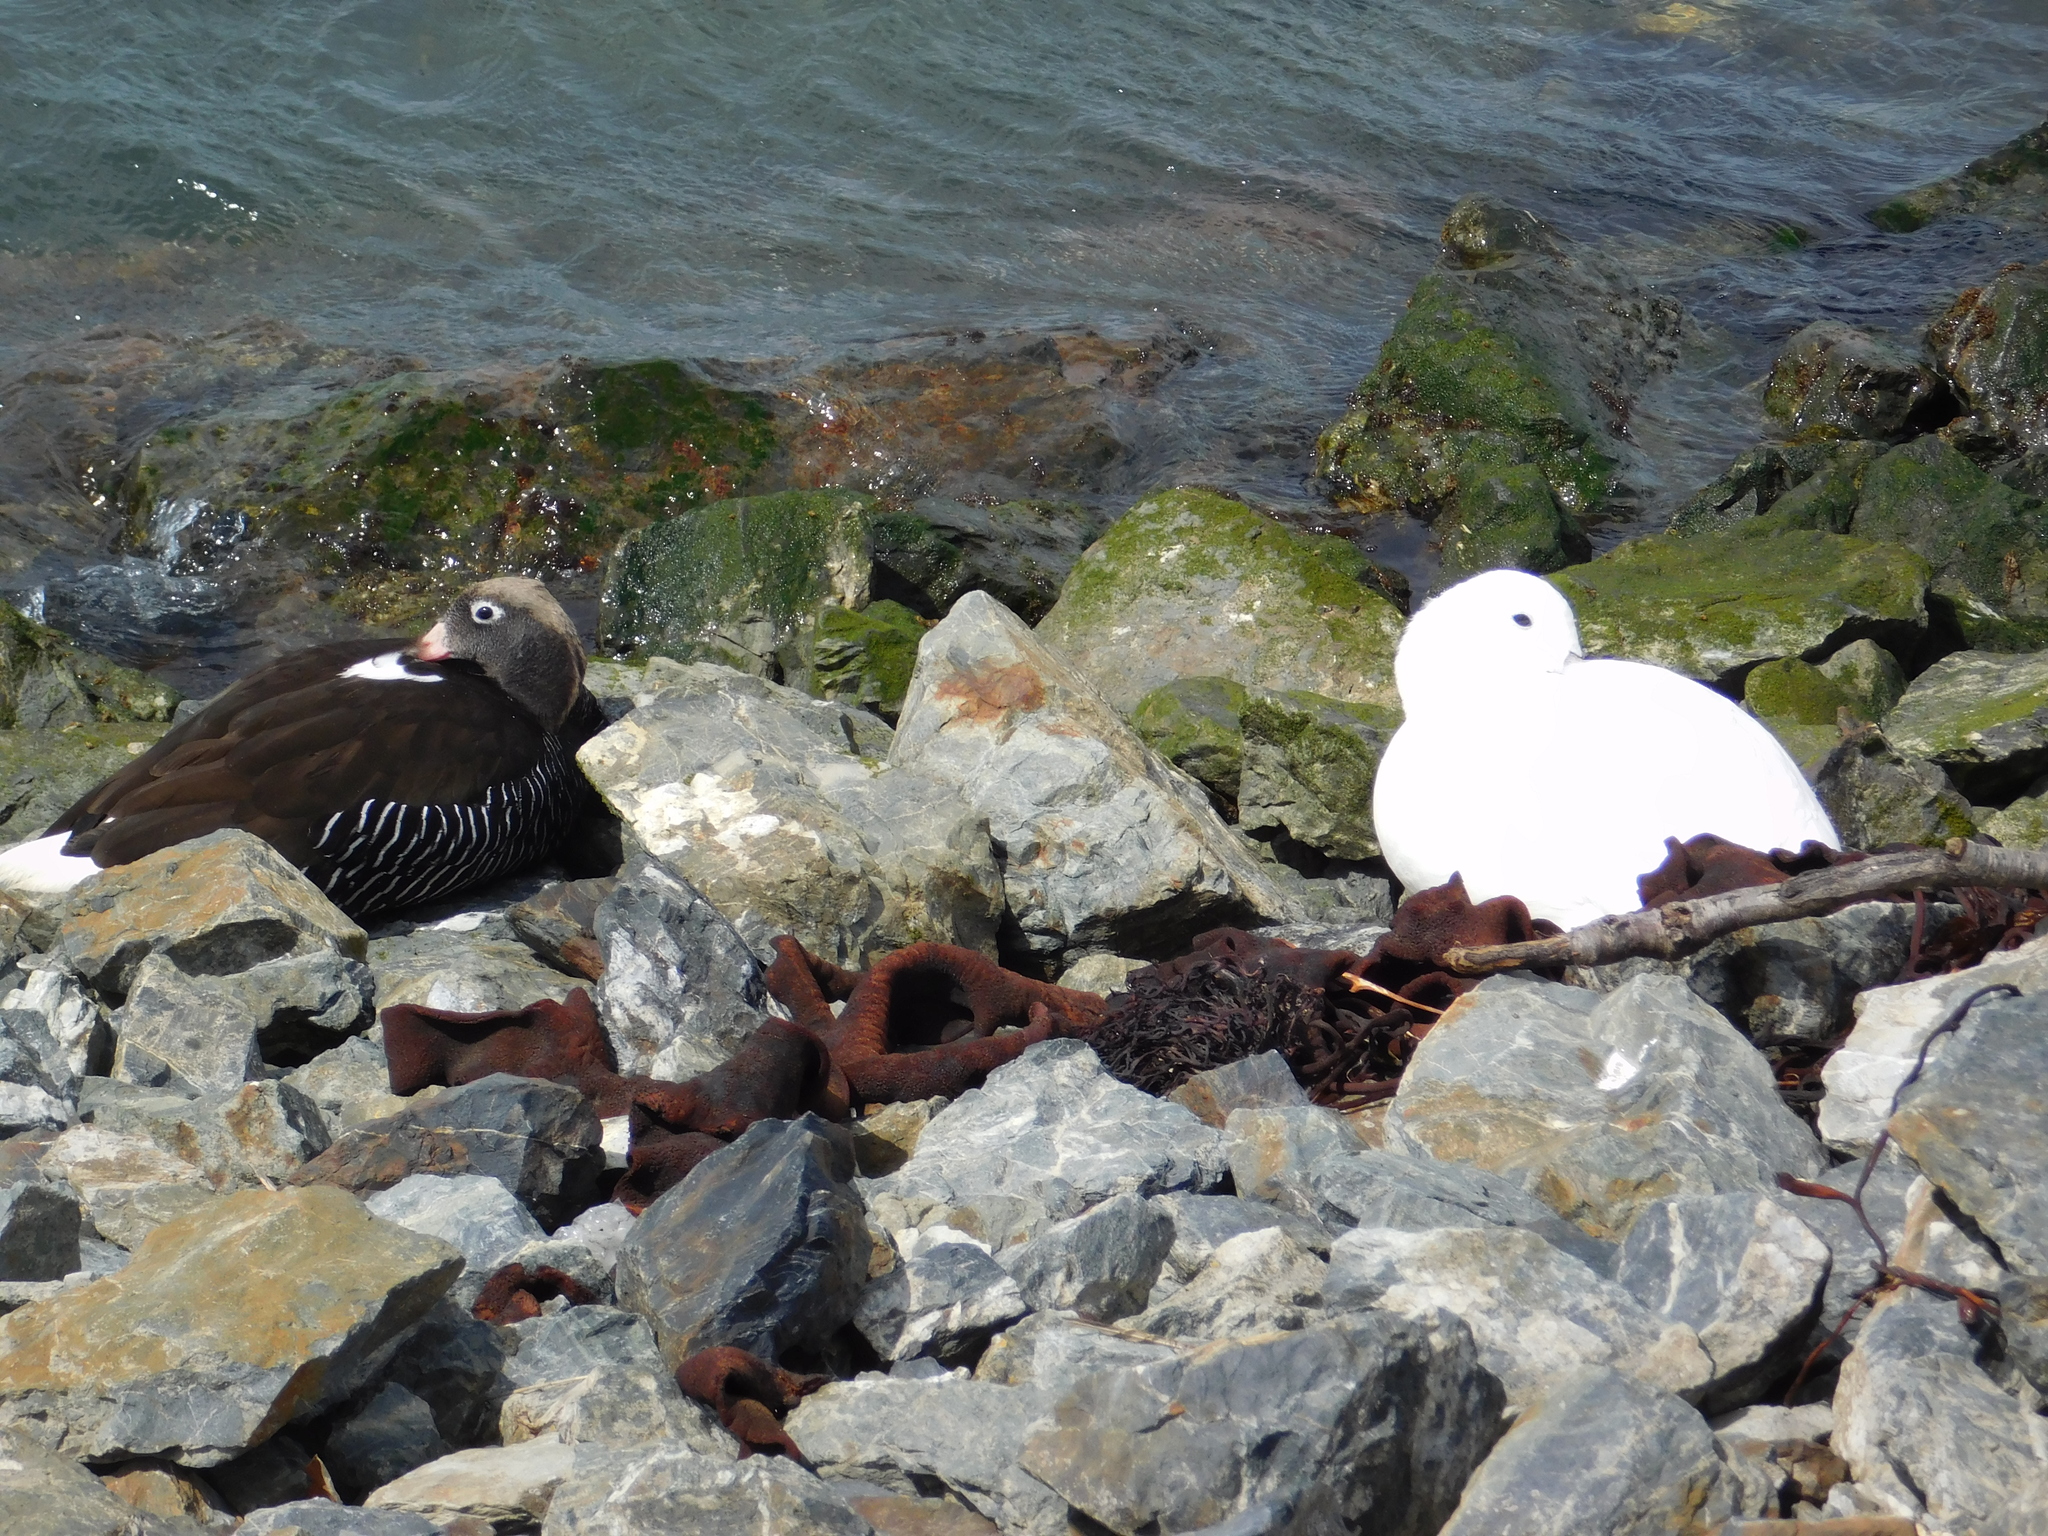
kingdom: Animalia
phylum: Chordata
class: Aves
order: Anseriformes
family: Anatidae
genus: Chloephaga
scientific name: Chloephaga hybrida
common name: Kelp goose
